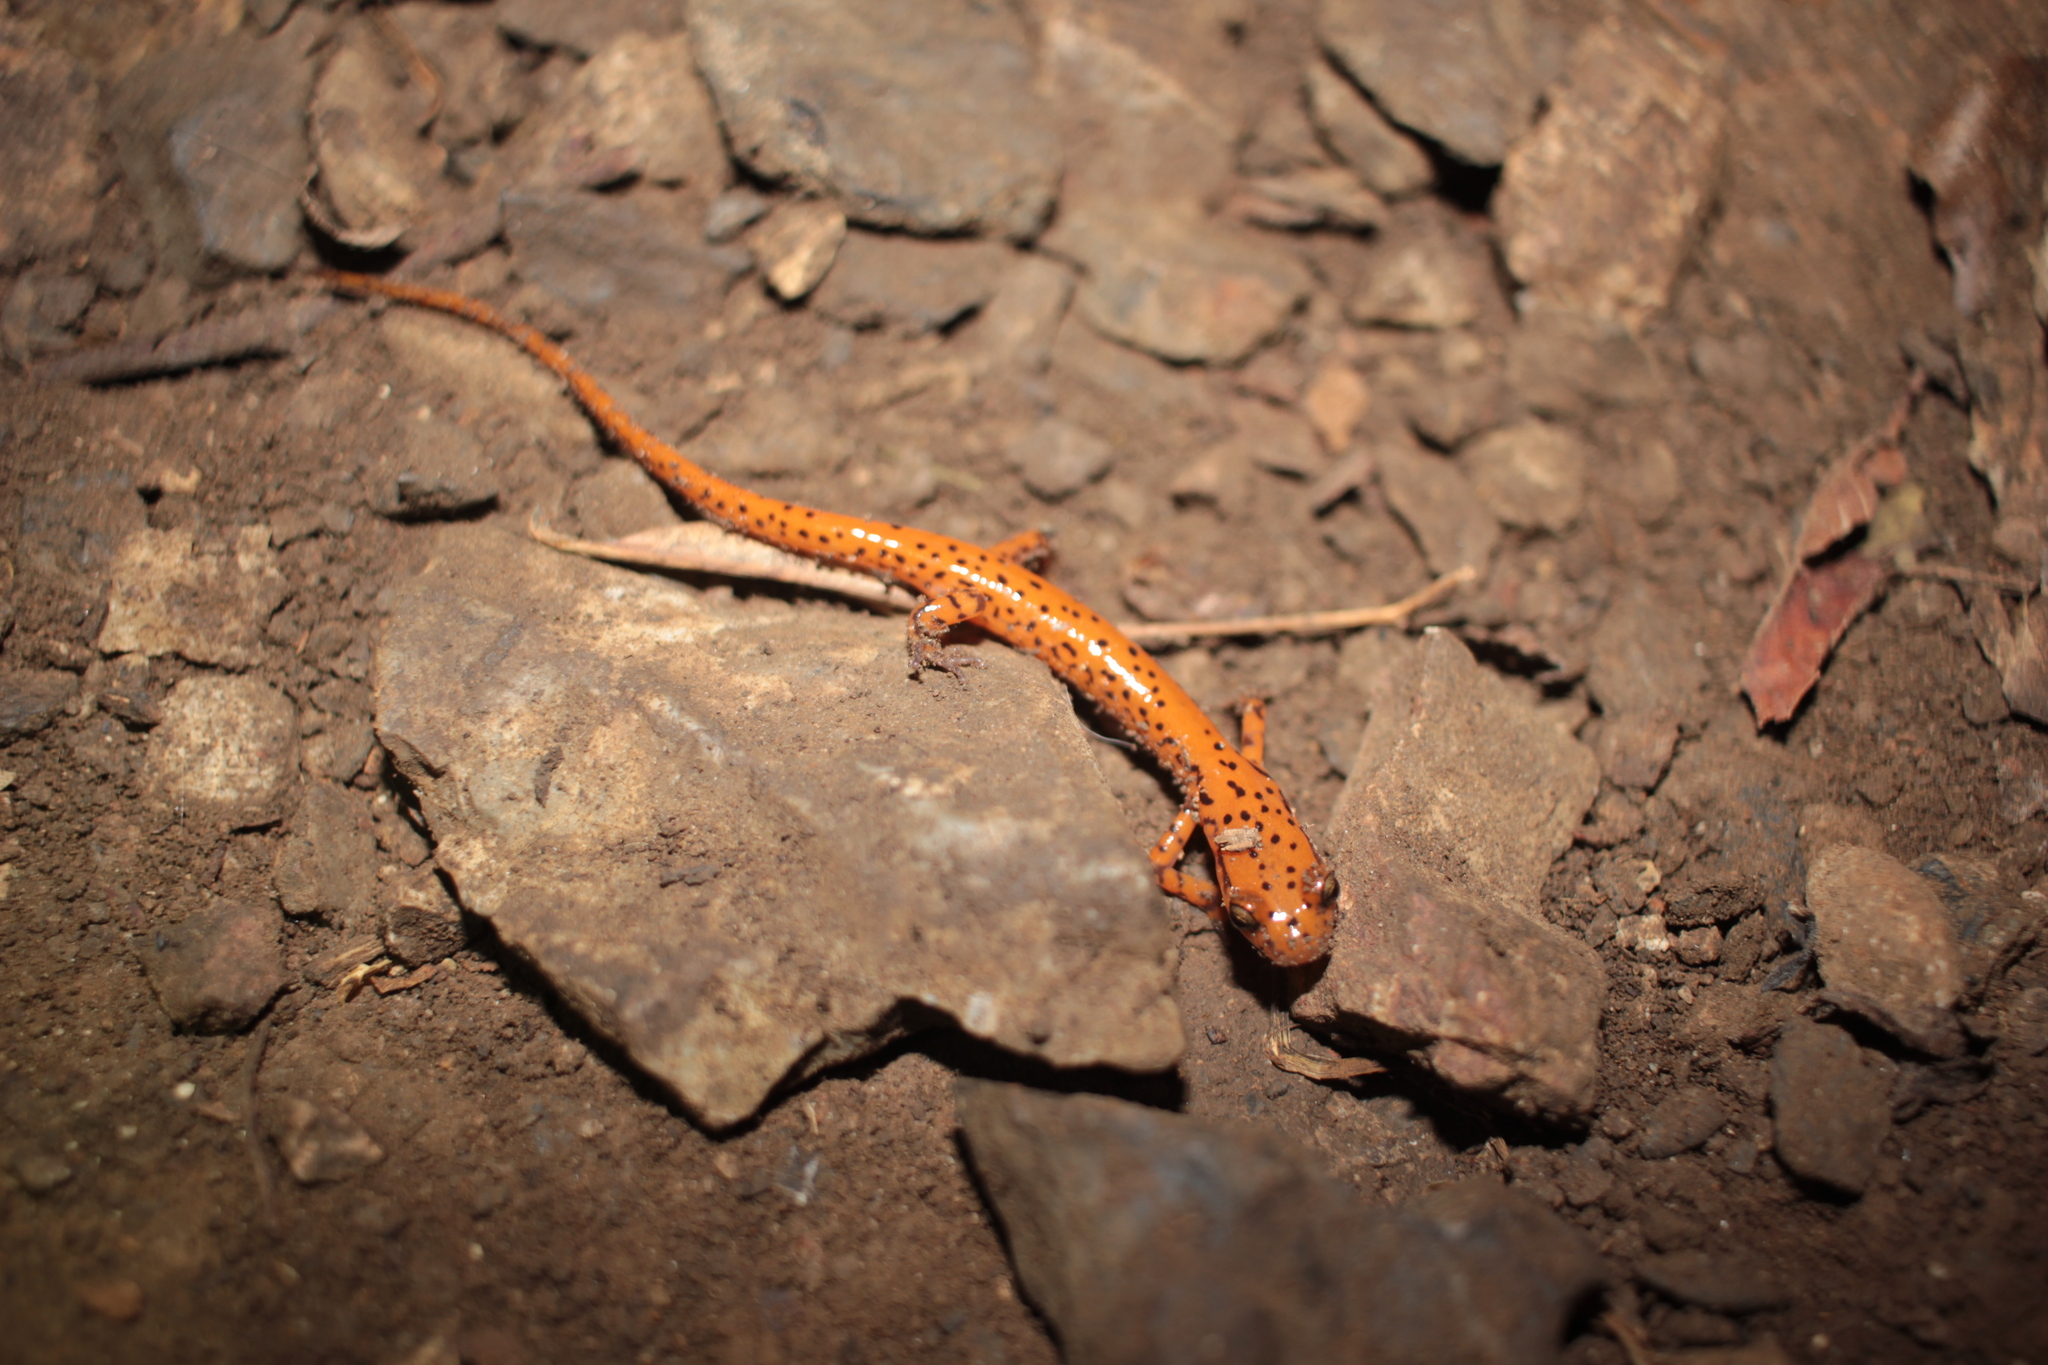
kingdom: Animalia
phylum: Chordata
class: Amphibia
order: Caudata
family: Plethodontidae
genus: Eurycea
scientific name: Eurycea lucifuga
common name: Cave salamander
